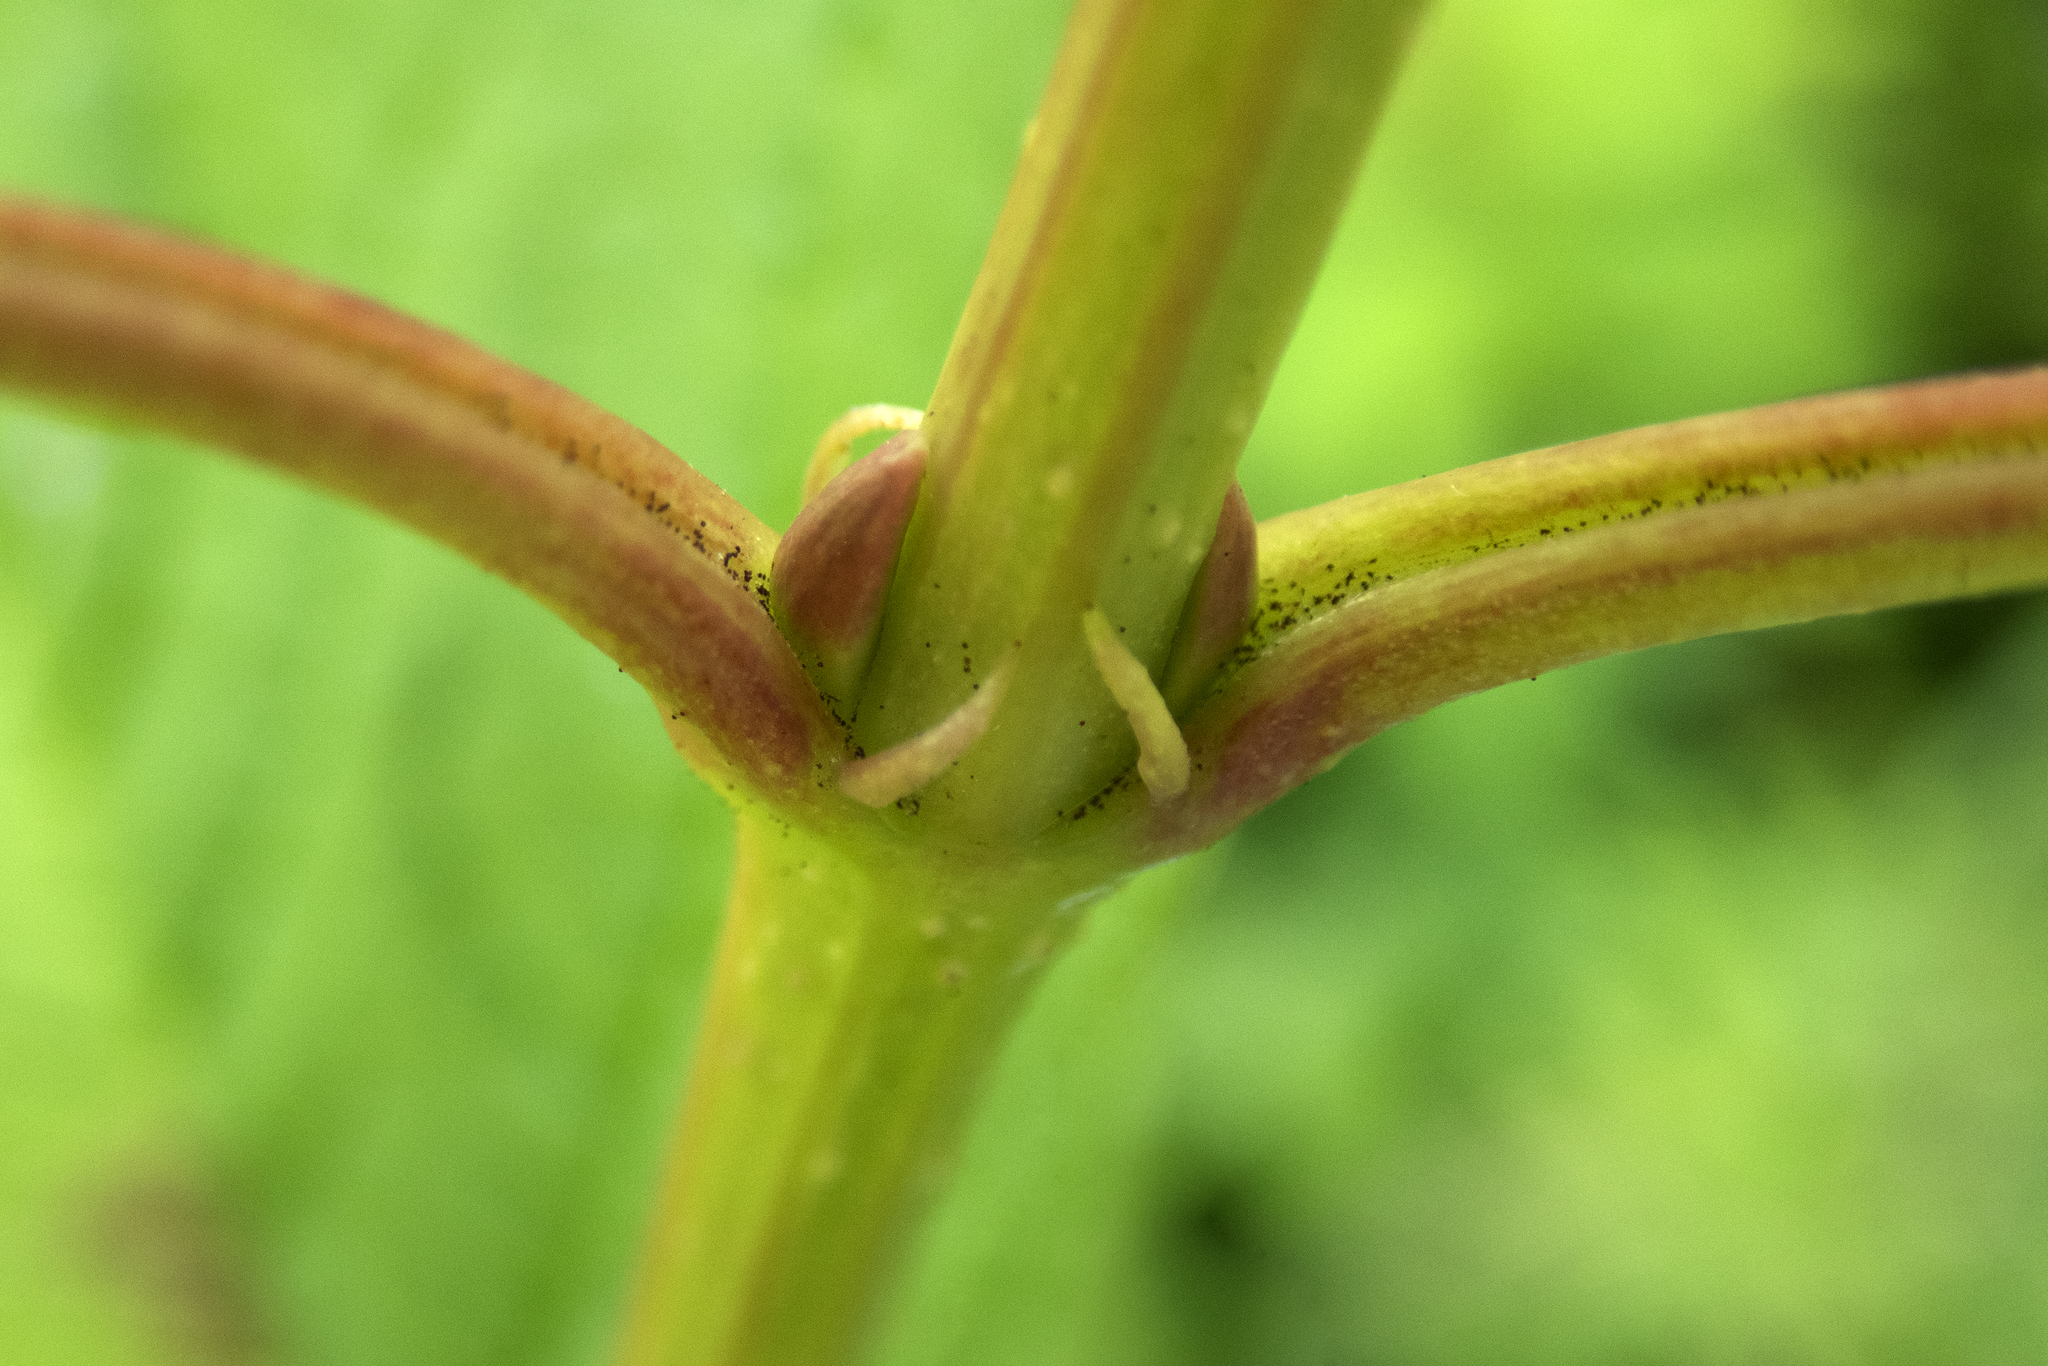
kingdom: Plantae
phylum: Tracheophyta
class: Magnoliopsida
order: Dipsacales
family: Viburnaceae
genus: Viburnum
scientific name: Viburnum opulus
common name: Guelder-rose
